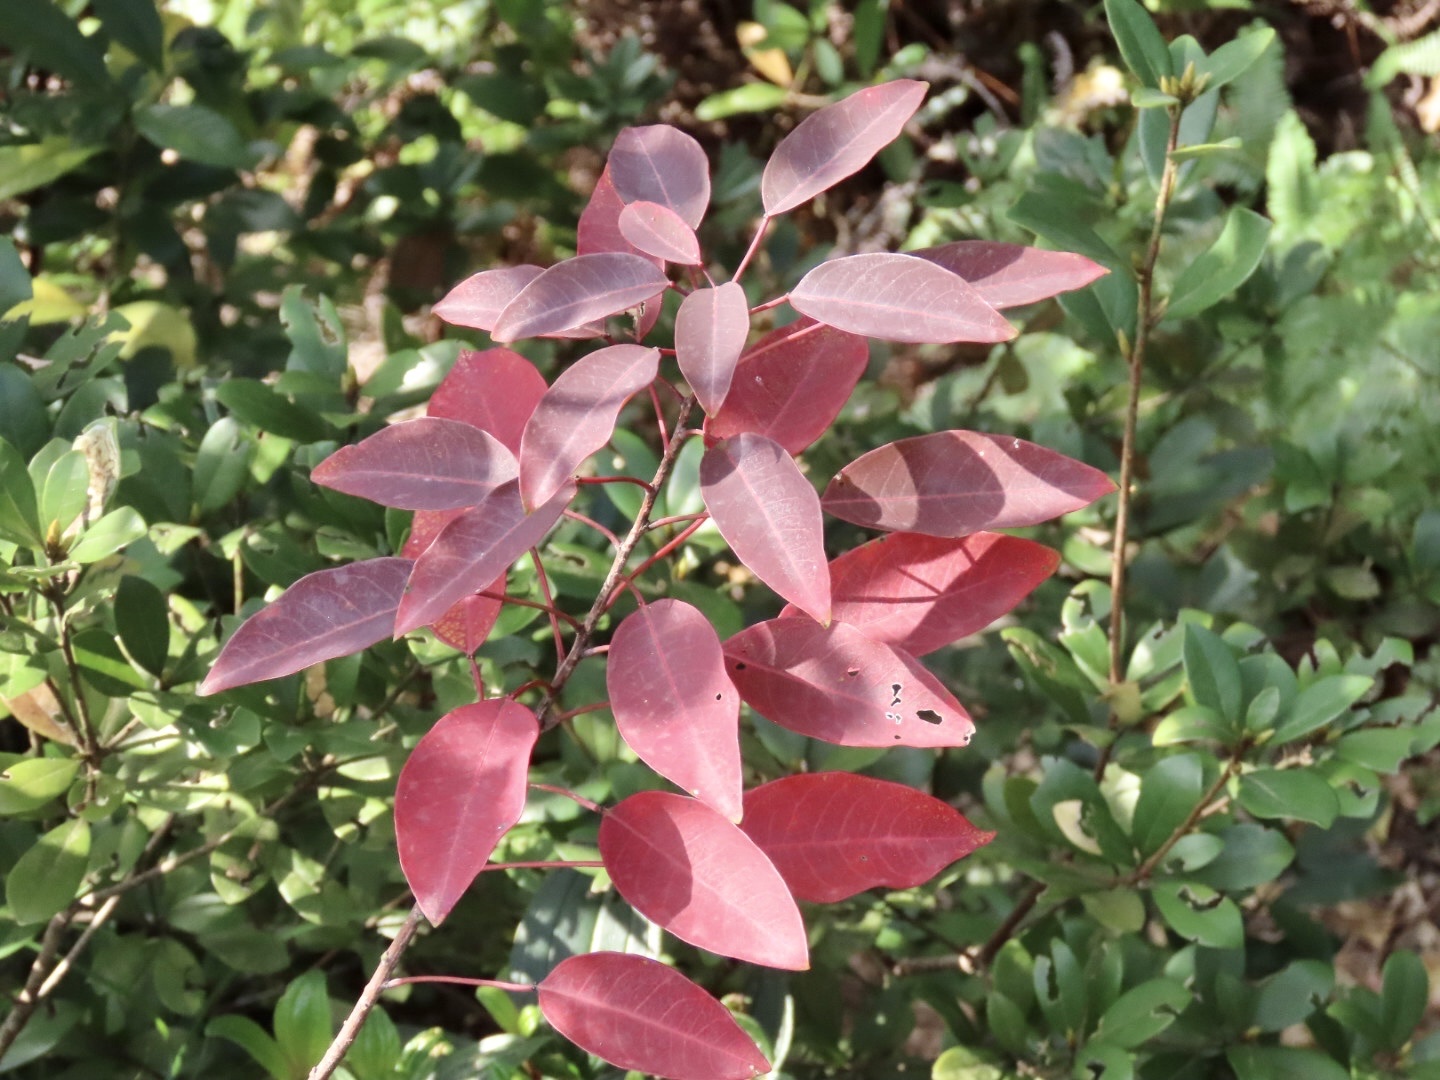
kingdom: Plantae
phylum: Tracheophyta
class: Magnoliopsida
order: Malpighiales
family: Euphorbiaceae
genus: Triadica
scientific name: Triadica cochinchinensis
